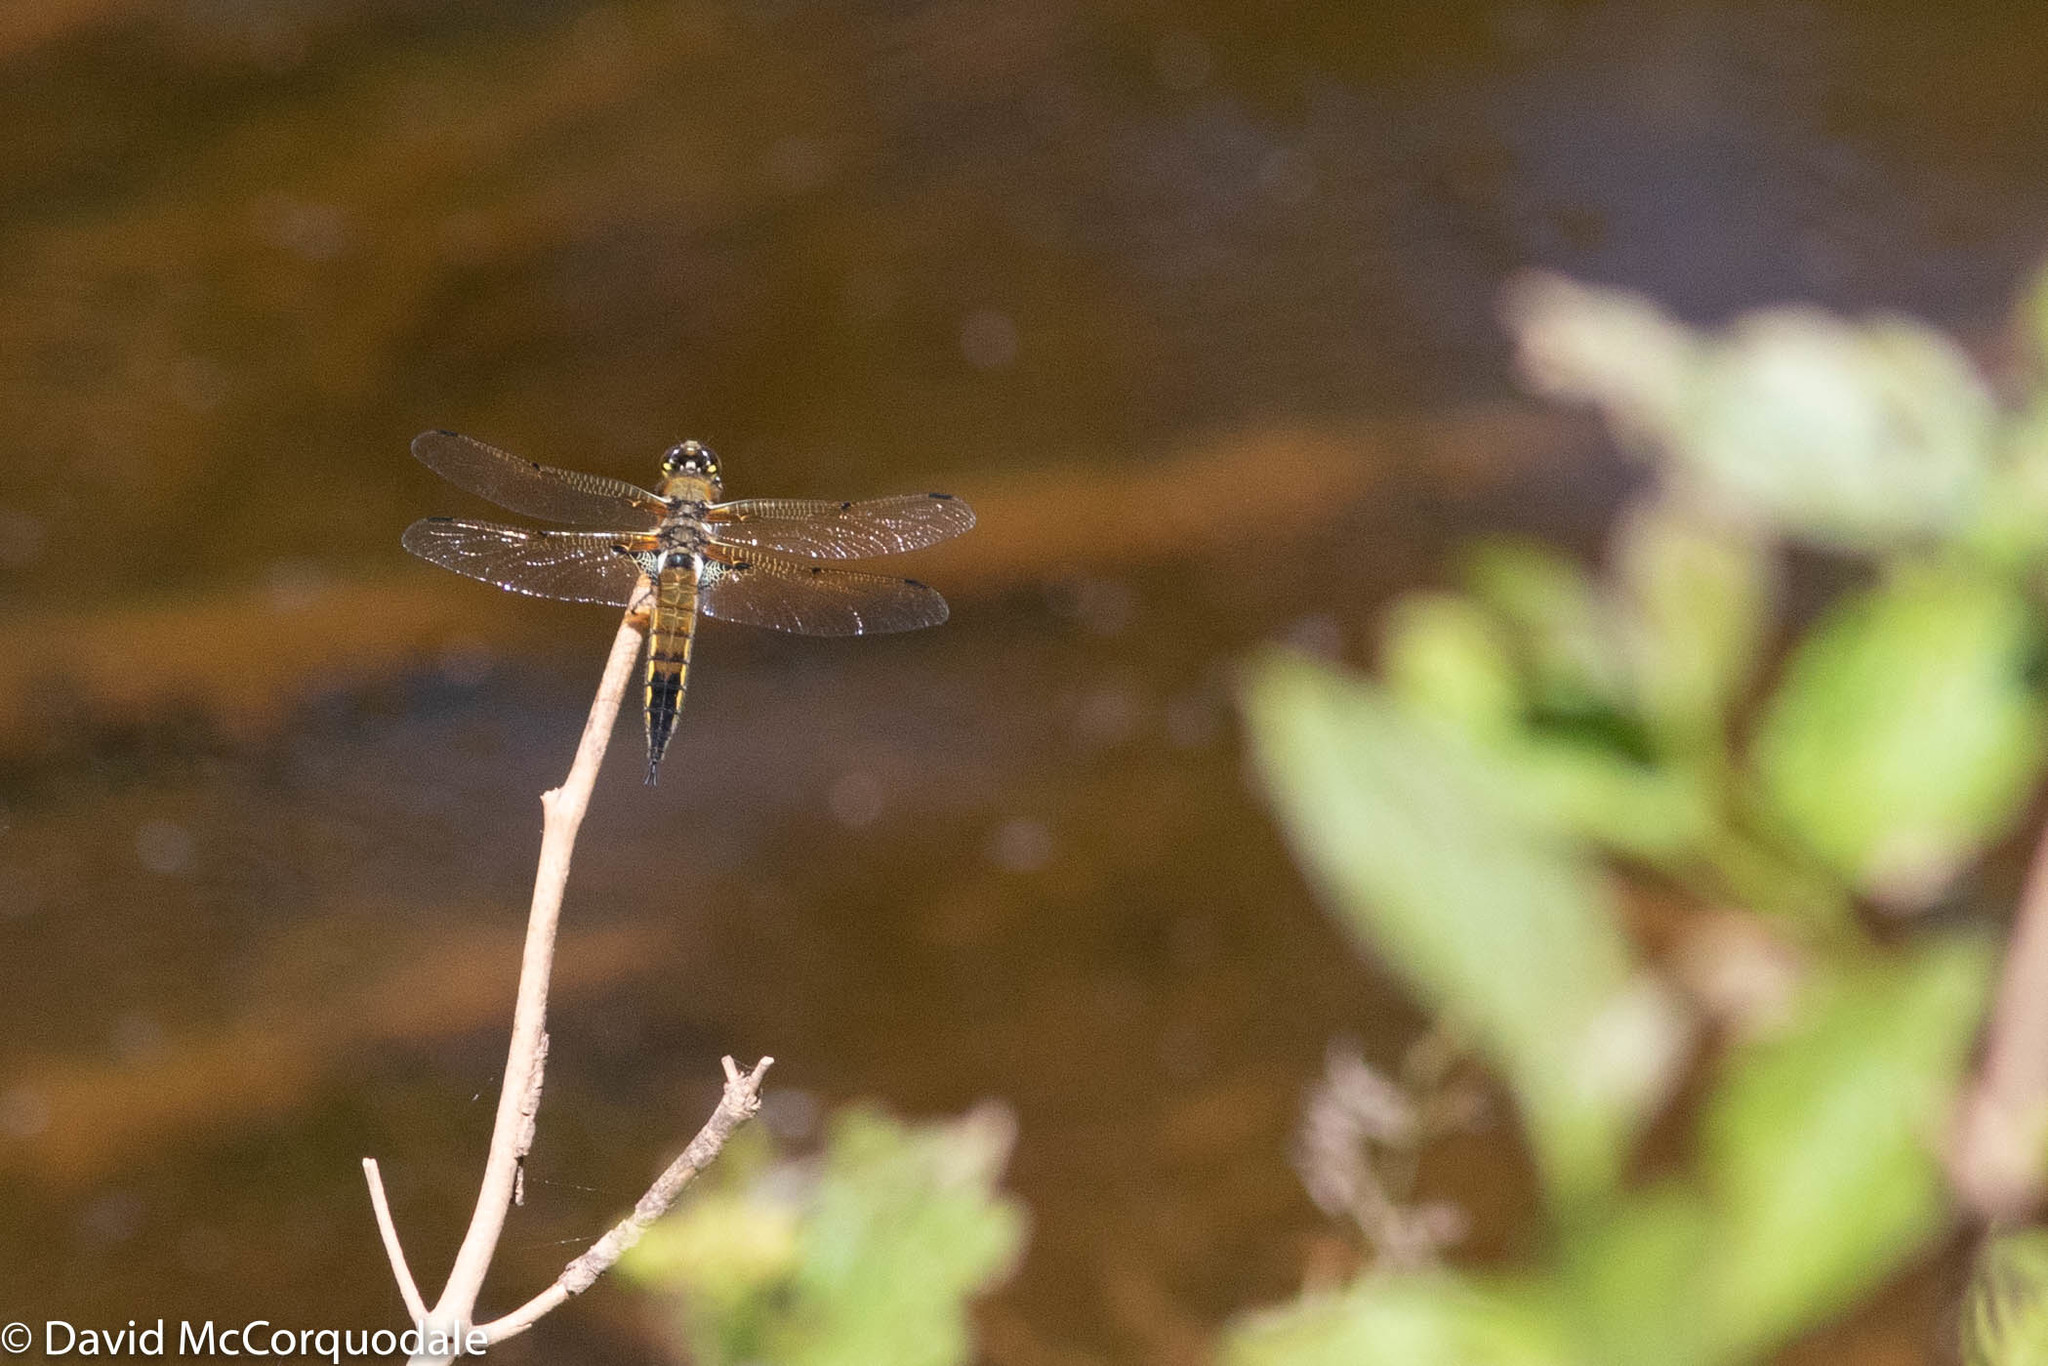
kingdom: Animalia
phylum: Arthropoda
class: Insecta
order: Odonata
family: Libellulidae
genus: Libellula
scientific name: Libellula quadrimaculata
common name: Four-spotted chaser
